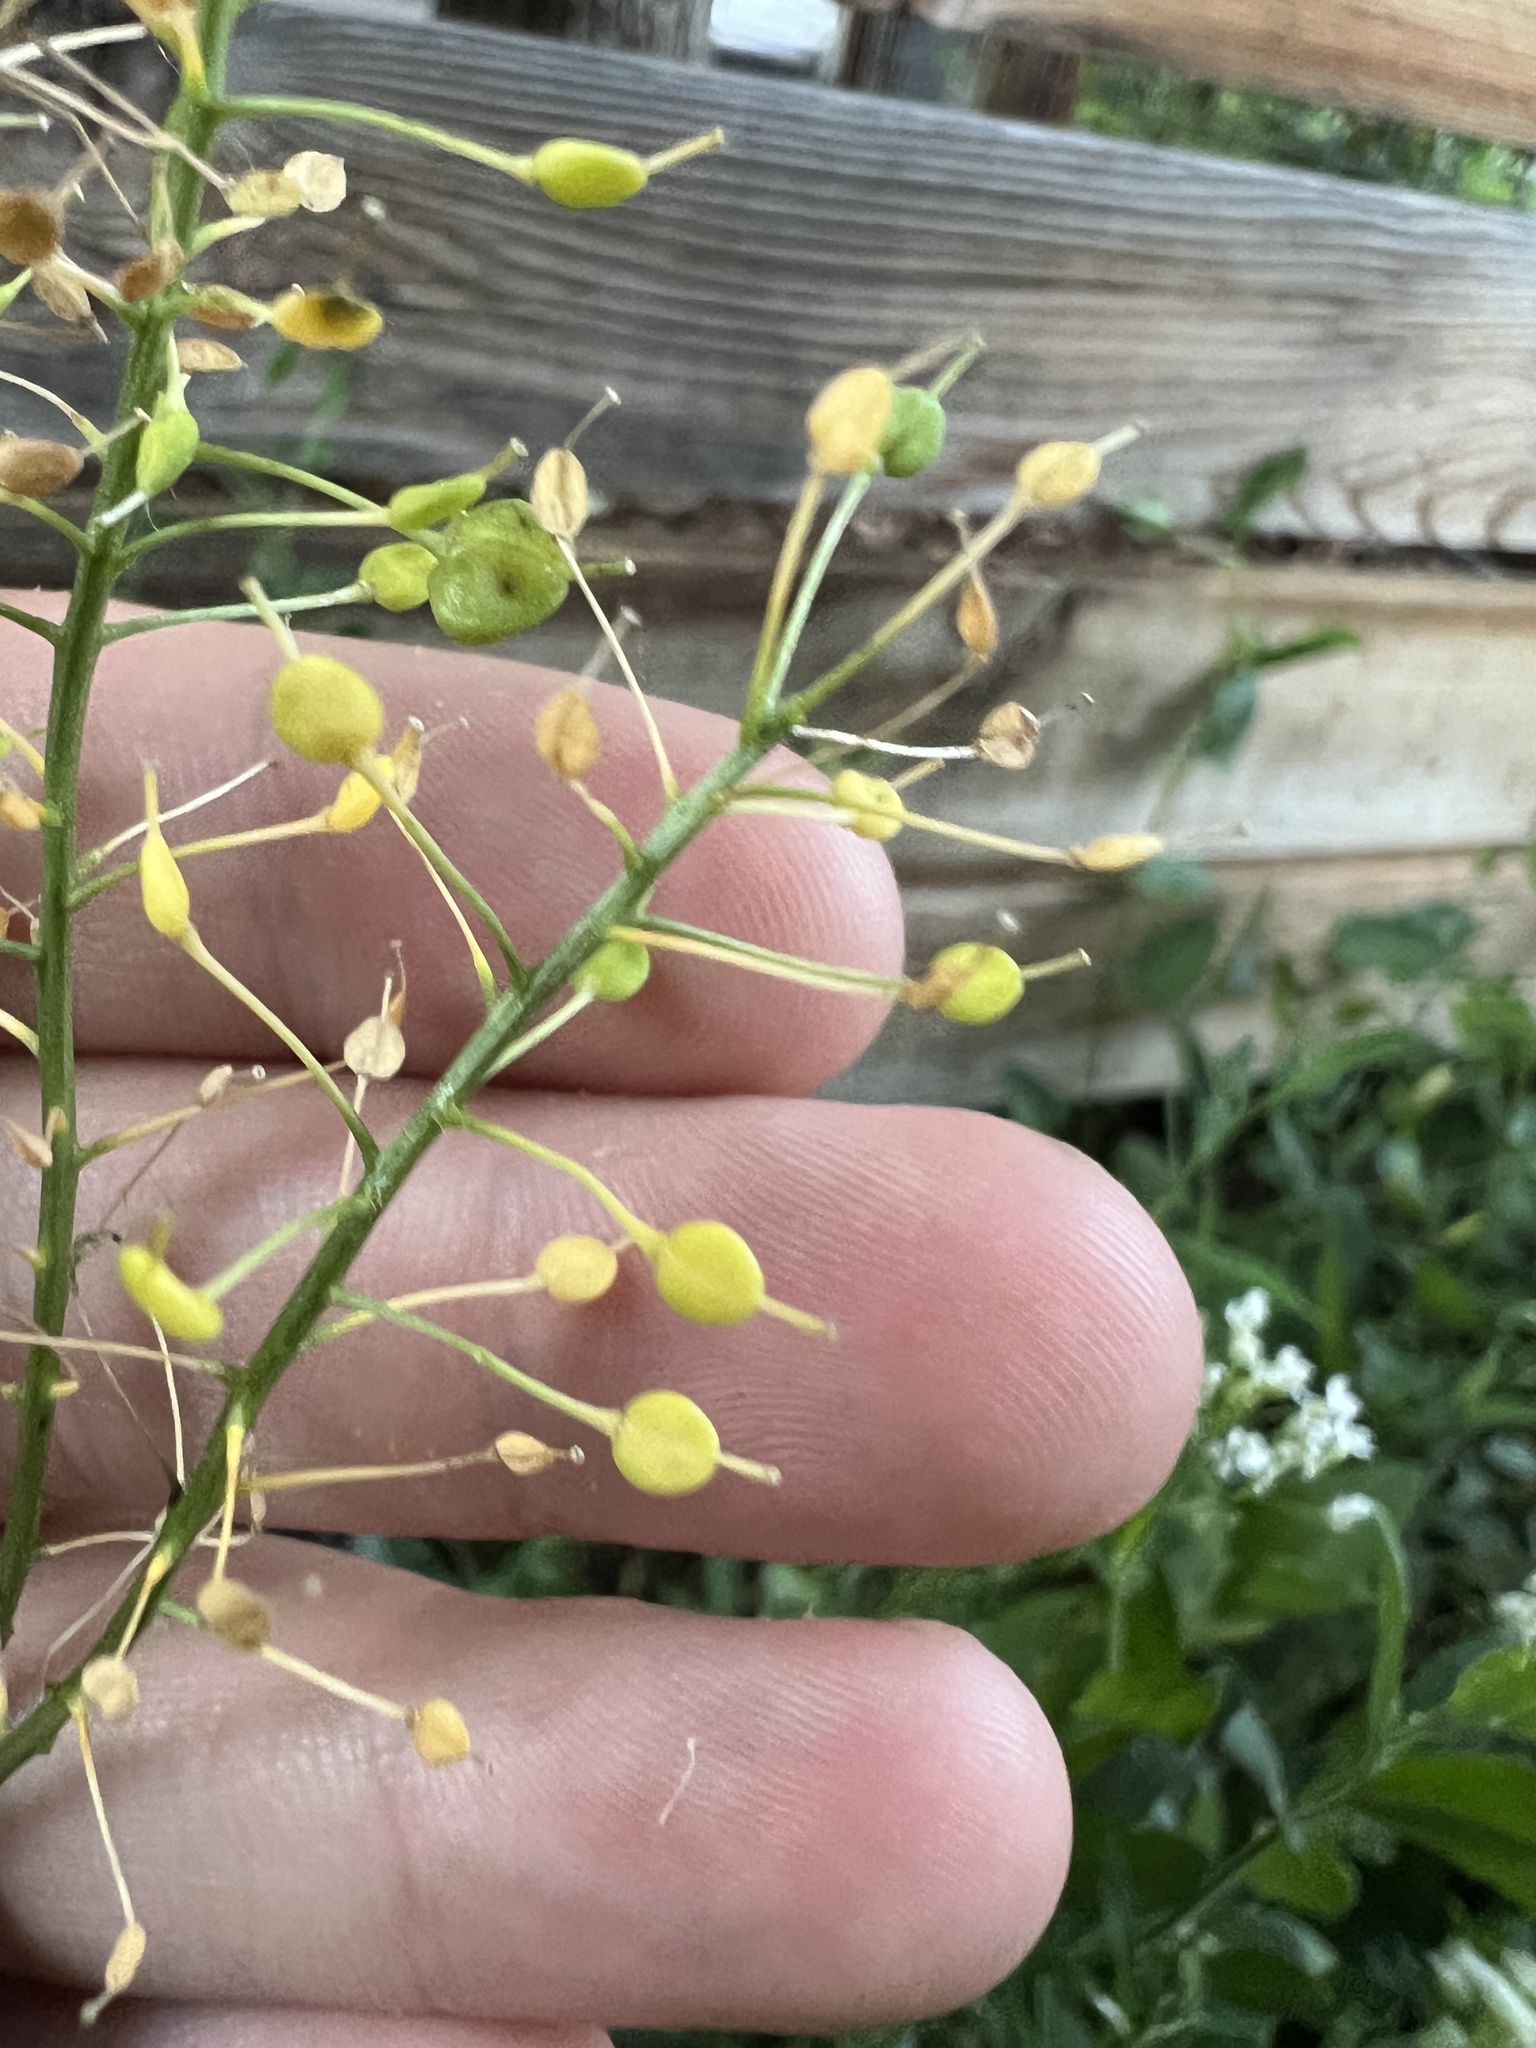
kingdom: Plantae
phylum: Tracheophyta
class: Magnoliopsida
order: Brassicales
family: Brassicaceae
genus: Lepidium
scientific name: Lepidium chalepense
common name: Orbicular whitetop
